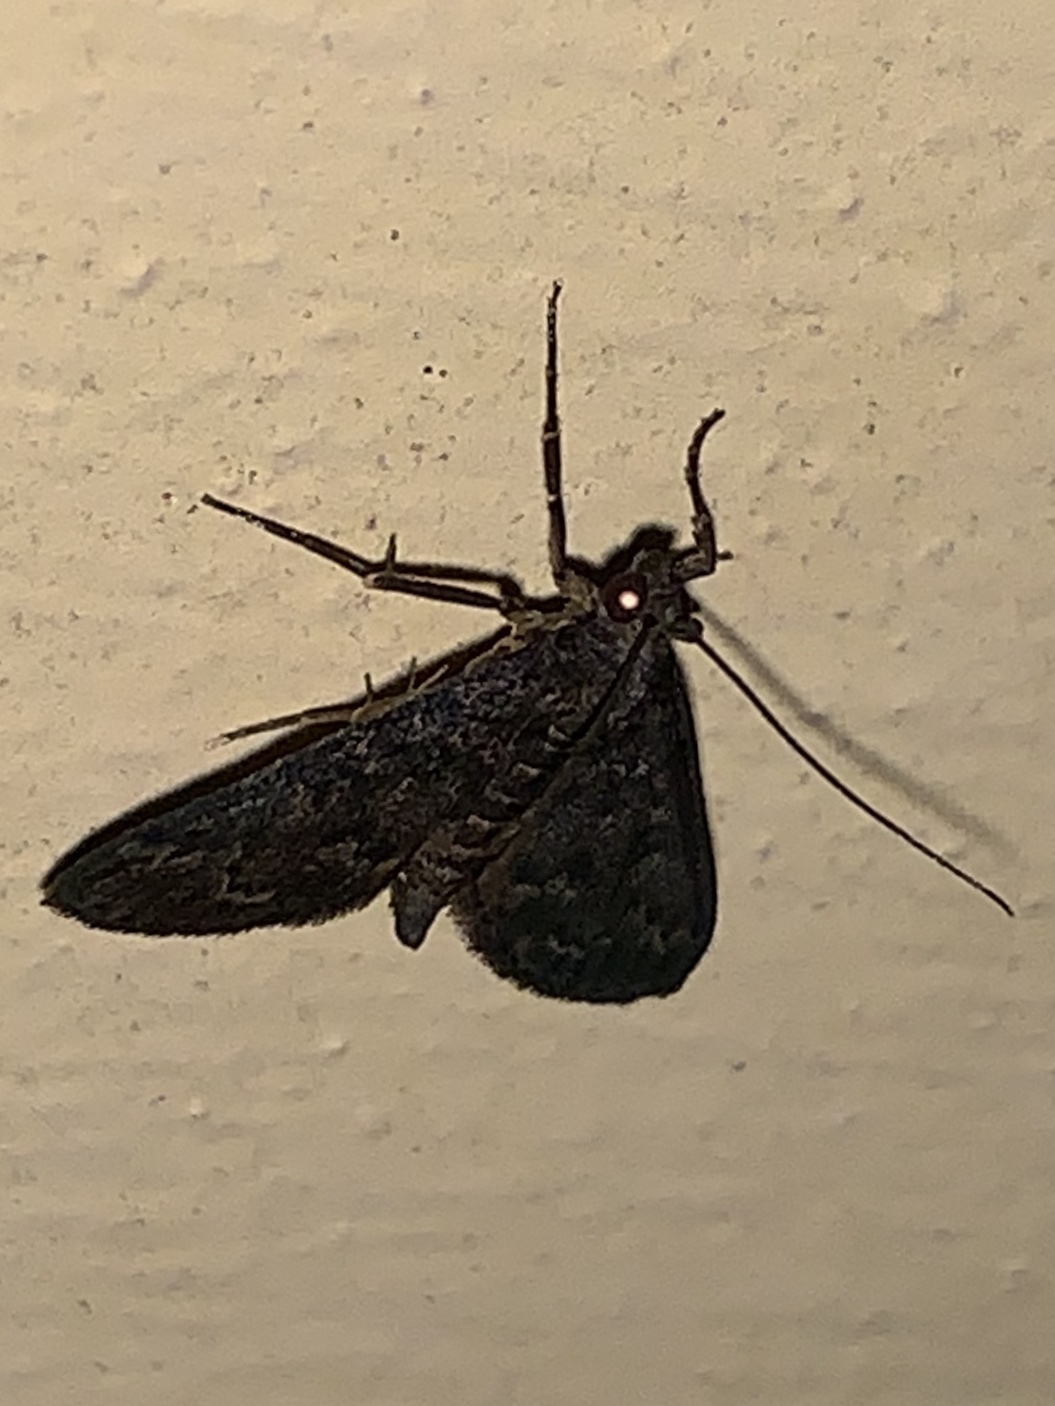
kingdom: Animalia
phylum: Arthropoda
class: Insecta
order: Lepidoptera
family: Crambidae
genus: Piletocera
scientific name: Piletocera bufalis
